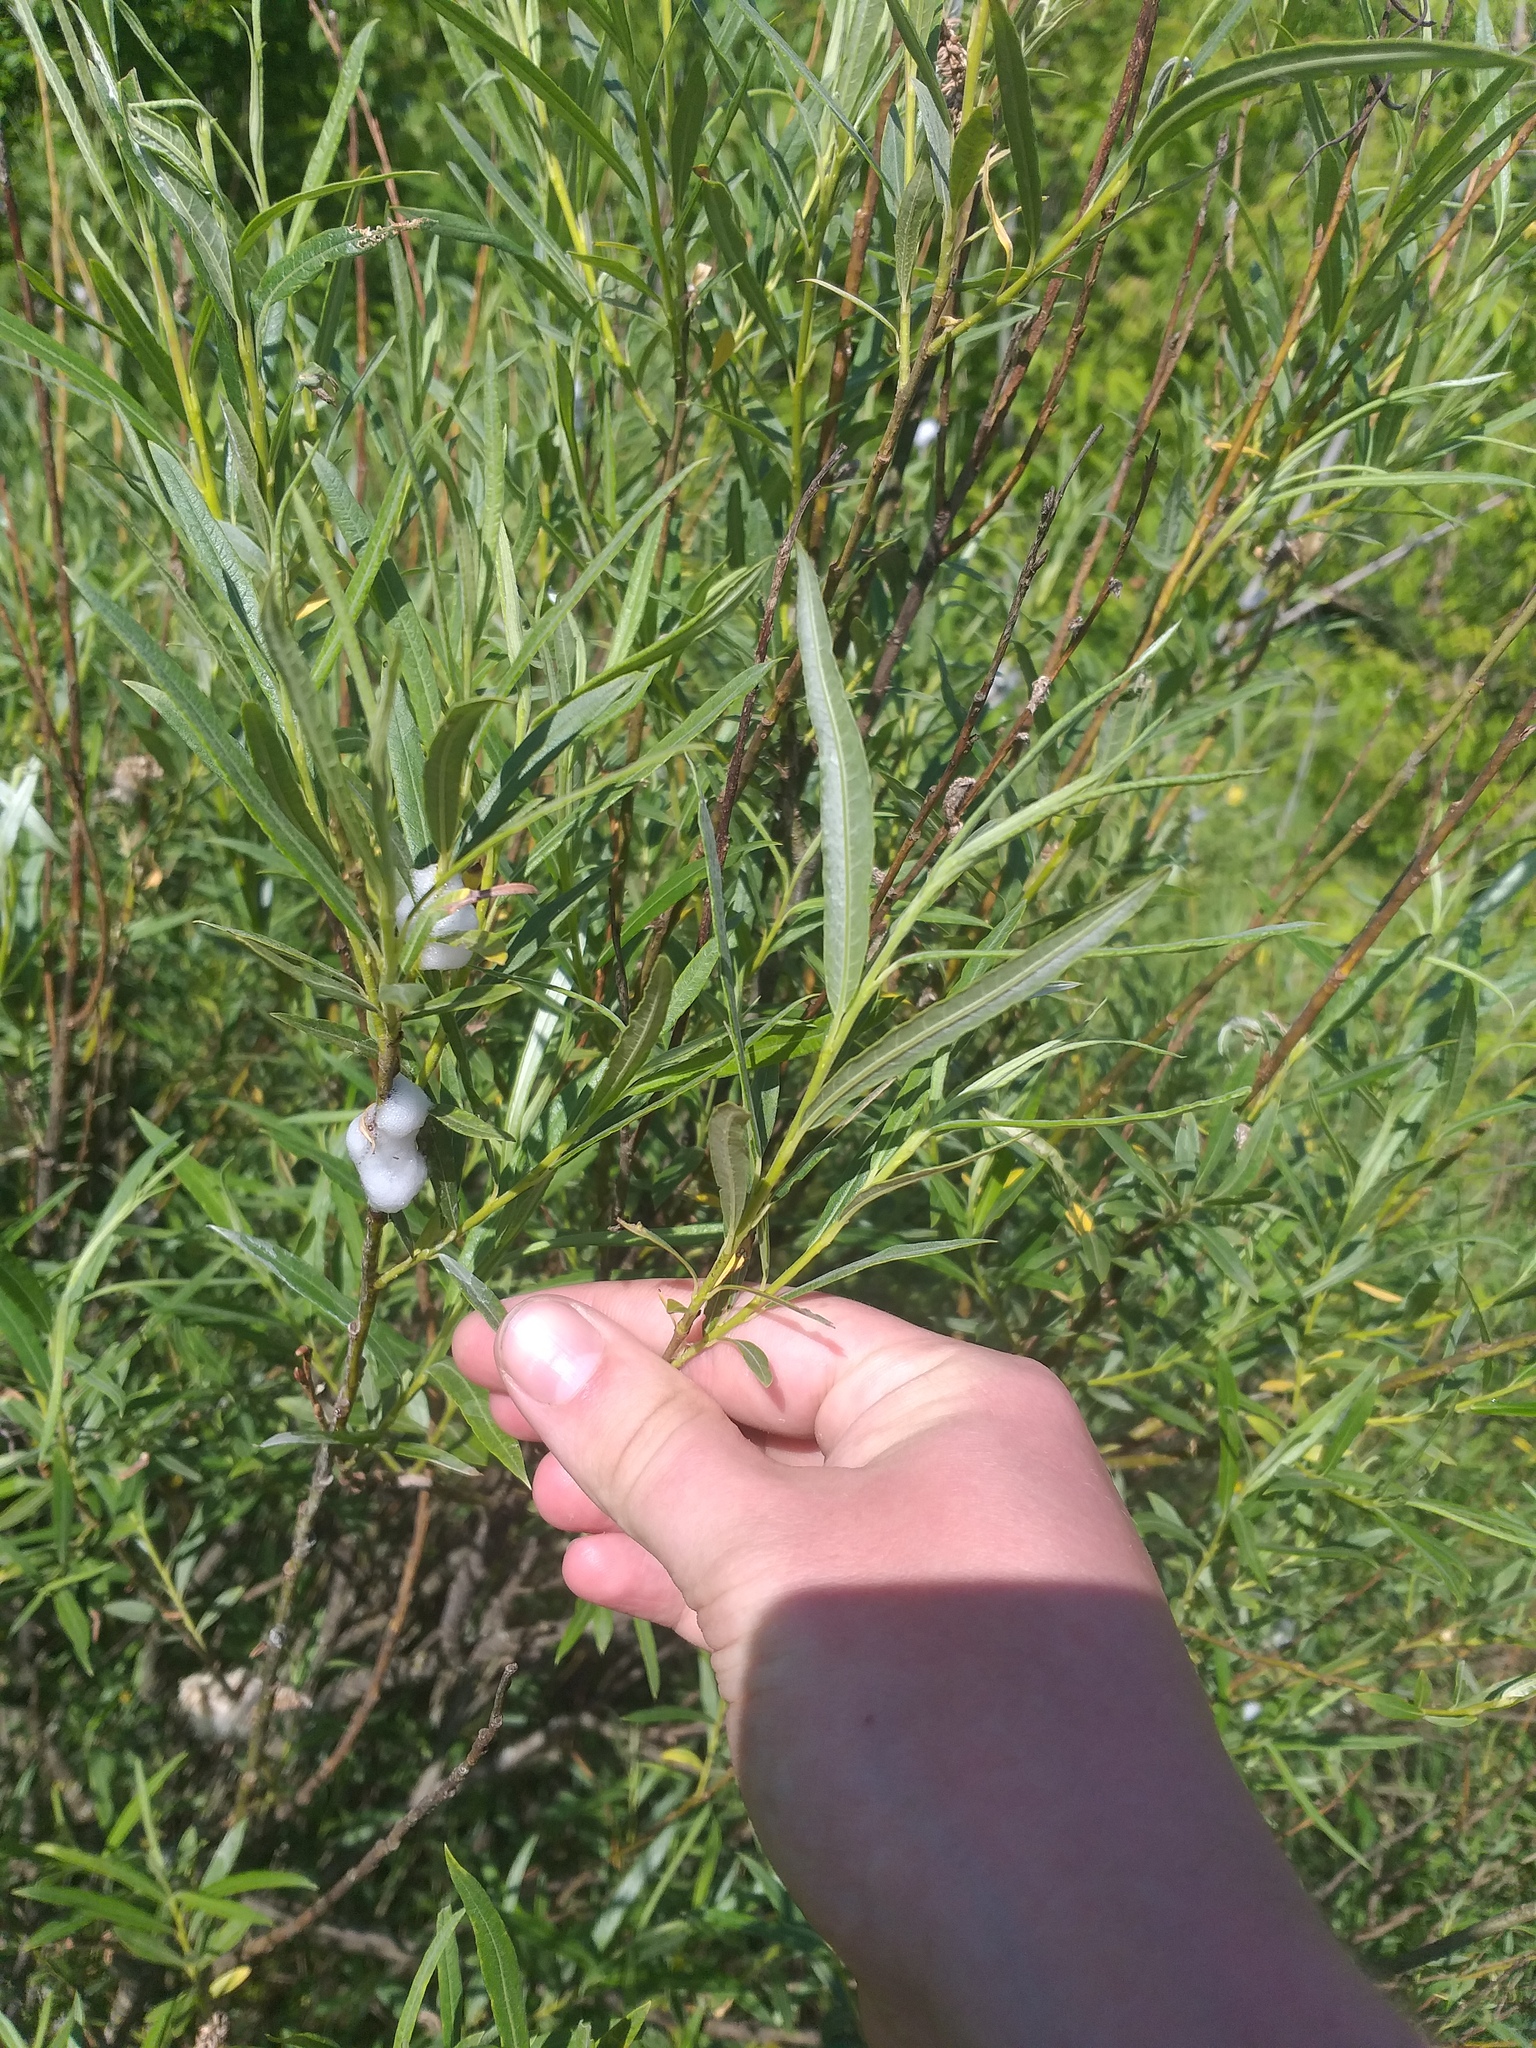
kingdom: Plantae
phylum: Tracheophyta
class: Magnoliopsida
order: Malpighiales
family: Salicaceae
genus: Salix
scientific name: Salix viminalis
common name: Osier
